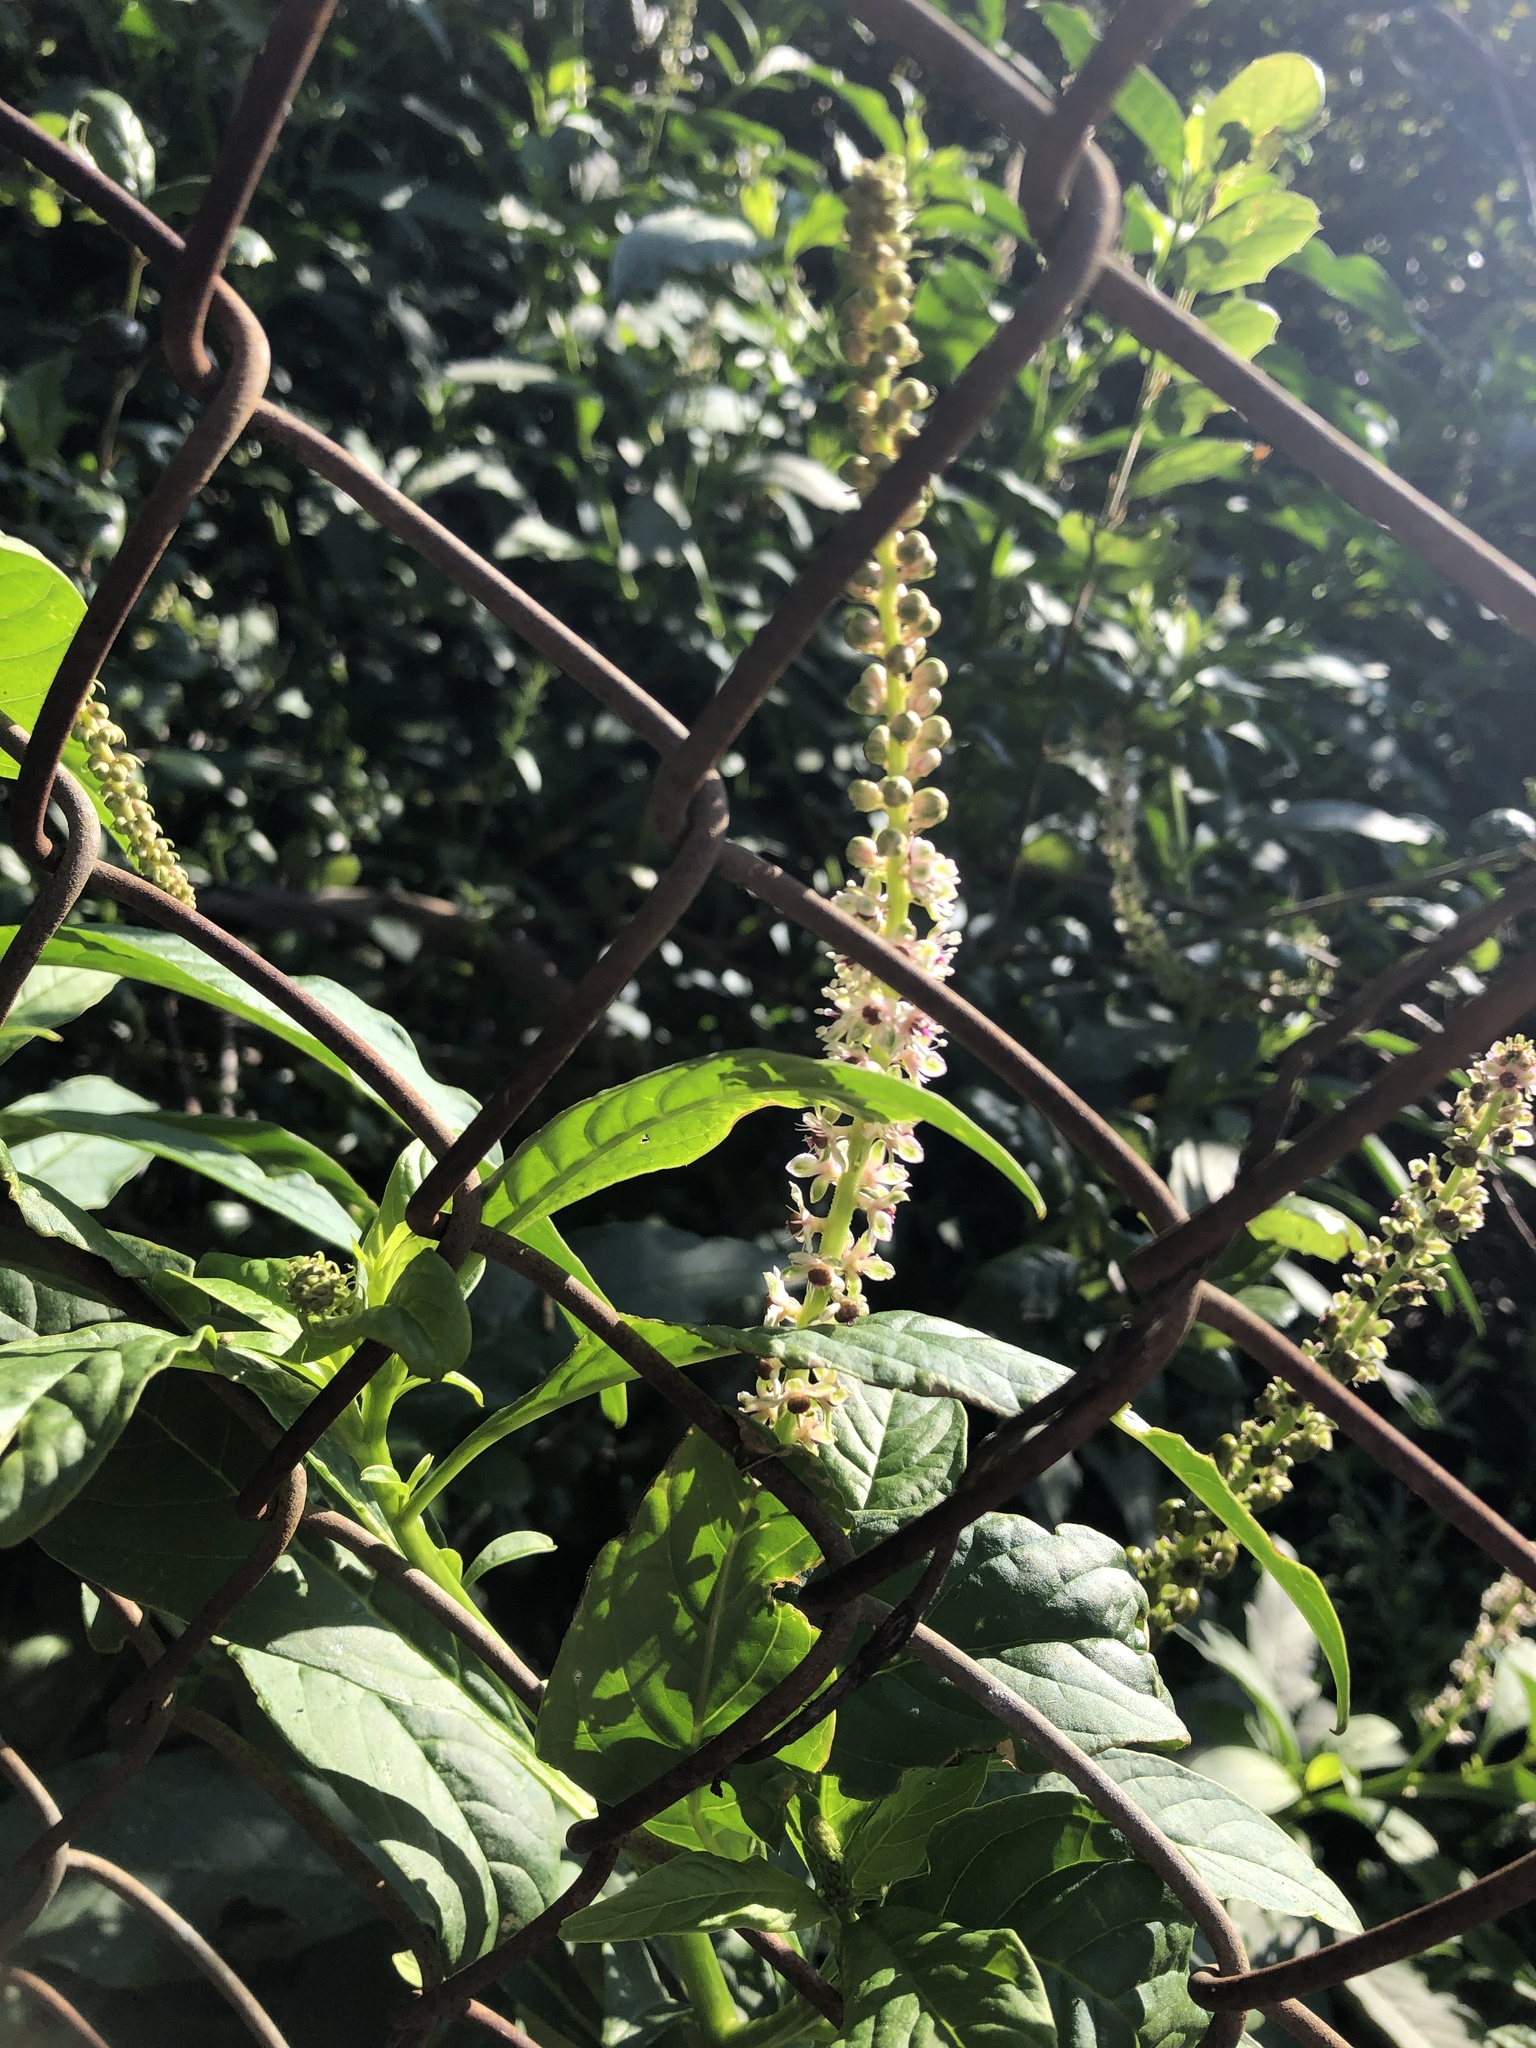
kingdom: Plantae
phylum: Tracheophyta
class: Magnoliopsida
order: Caryophyllales
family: Phytolaccaceae
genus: Phytolacca
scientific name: Phytolacca icosandra
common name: Button pokeweed
